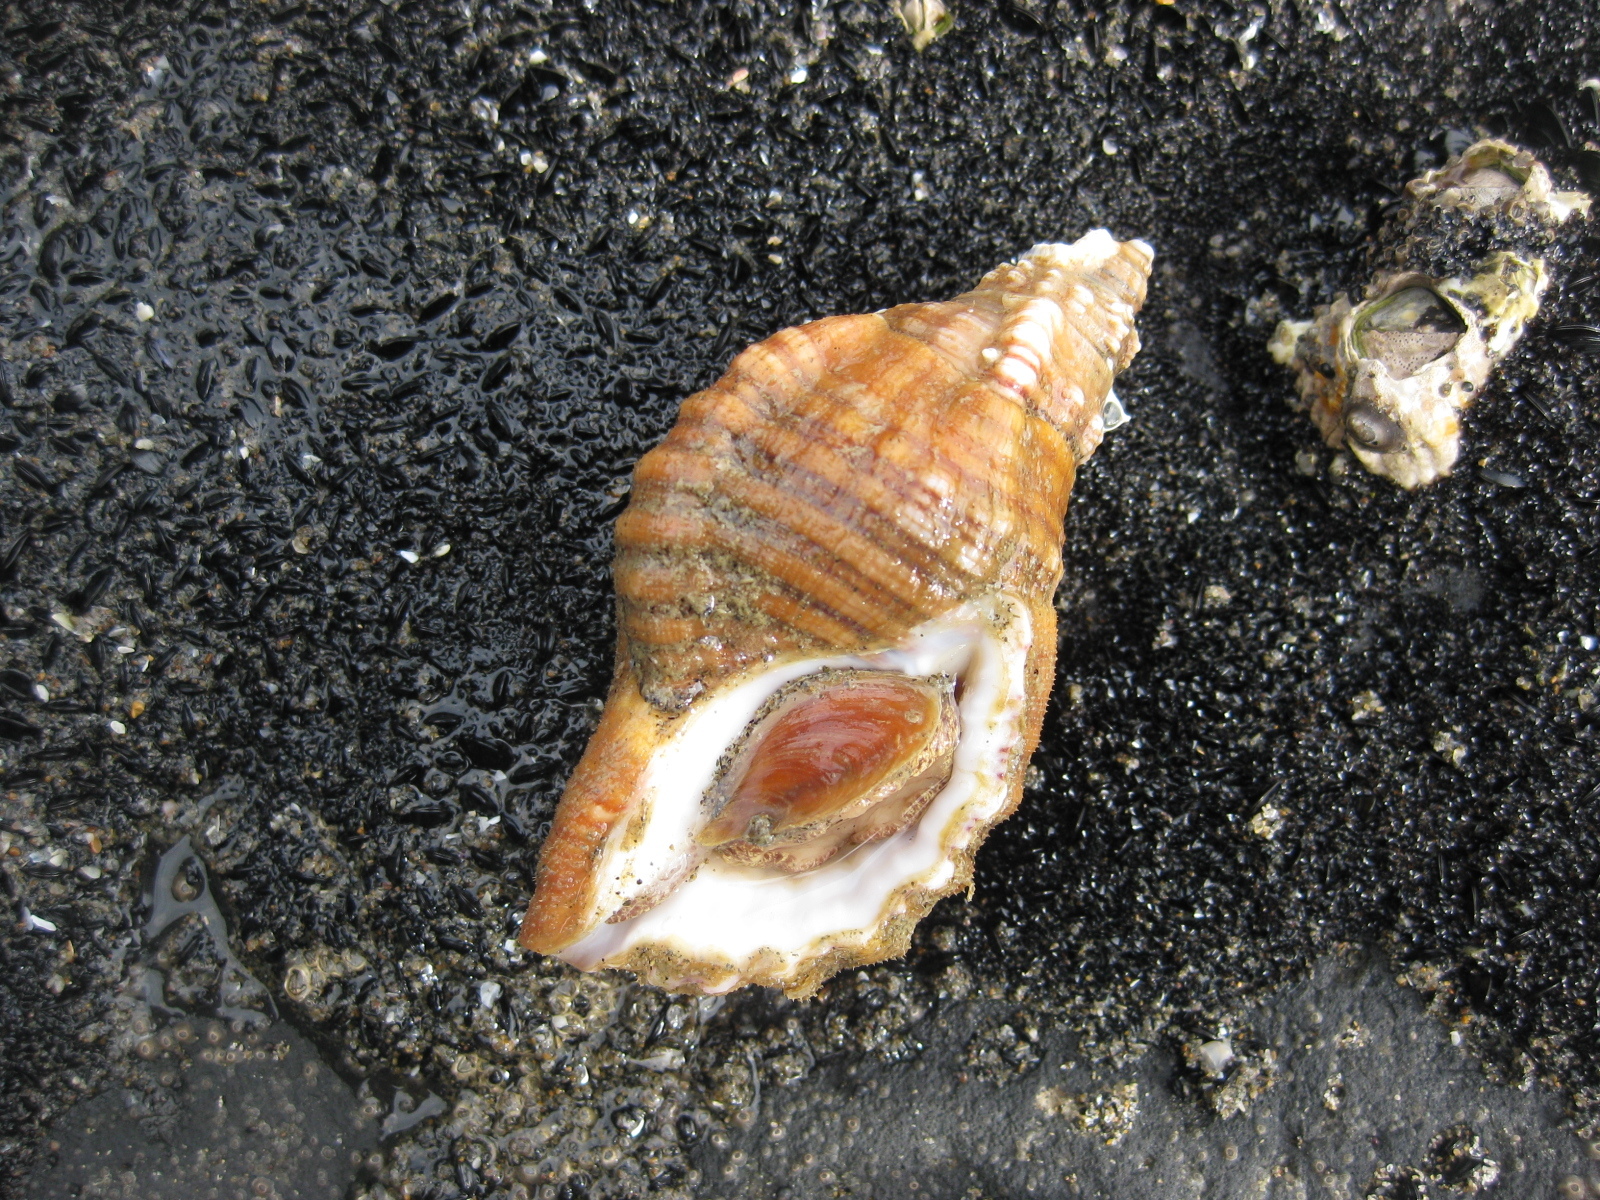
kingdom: Animalia
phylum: Mollusca
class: Gastropoda
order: Littorinimorpha
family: Cymatiidae
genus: Cabestana
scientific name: Cabestana spengleri
